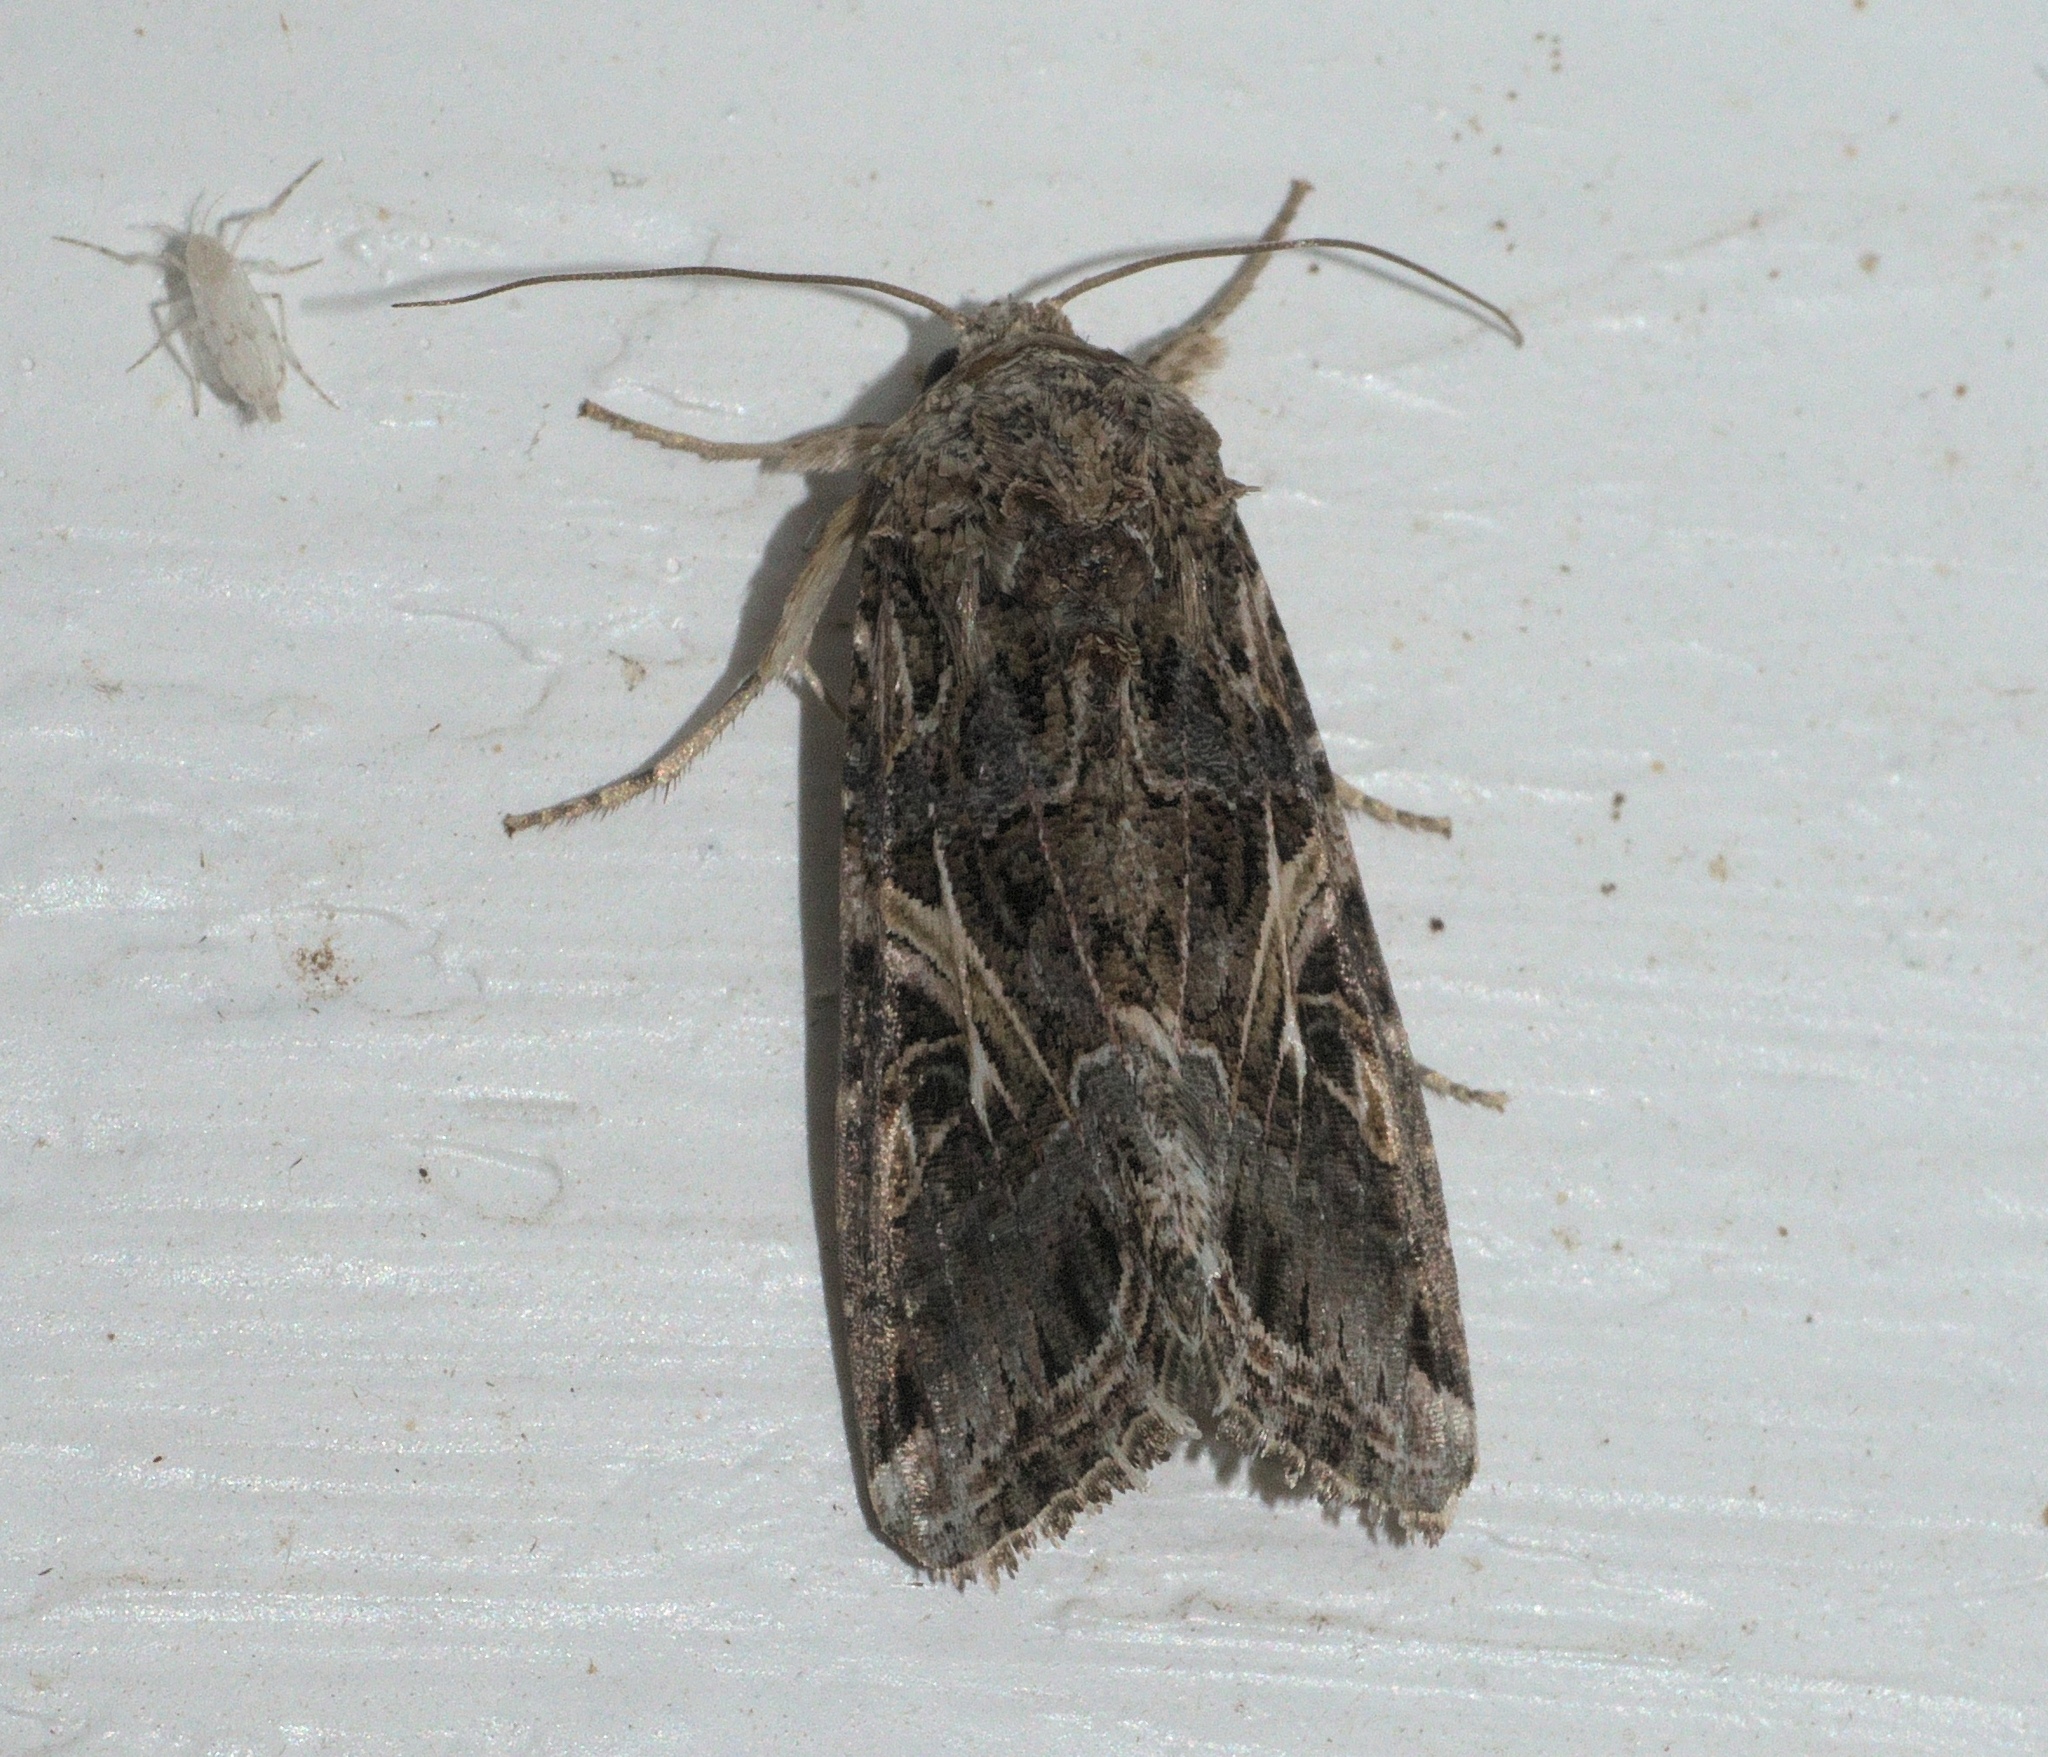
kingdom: Animalia
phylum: Arthropoda
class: Insecta
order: Lepidoptera
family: Noctuidae
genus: Spodoptera
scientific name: Spodoptera ornithogalli
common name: Yellow-striped armyworm
